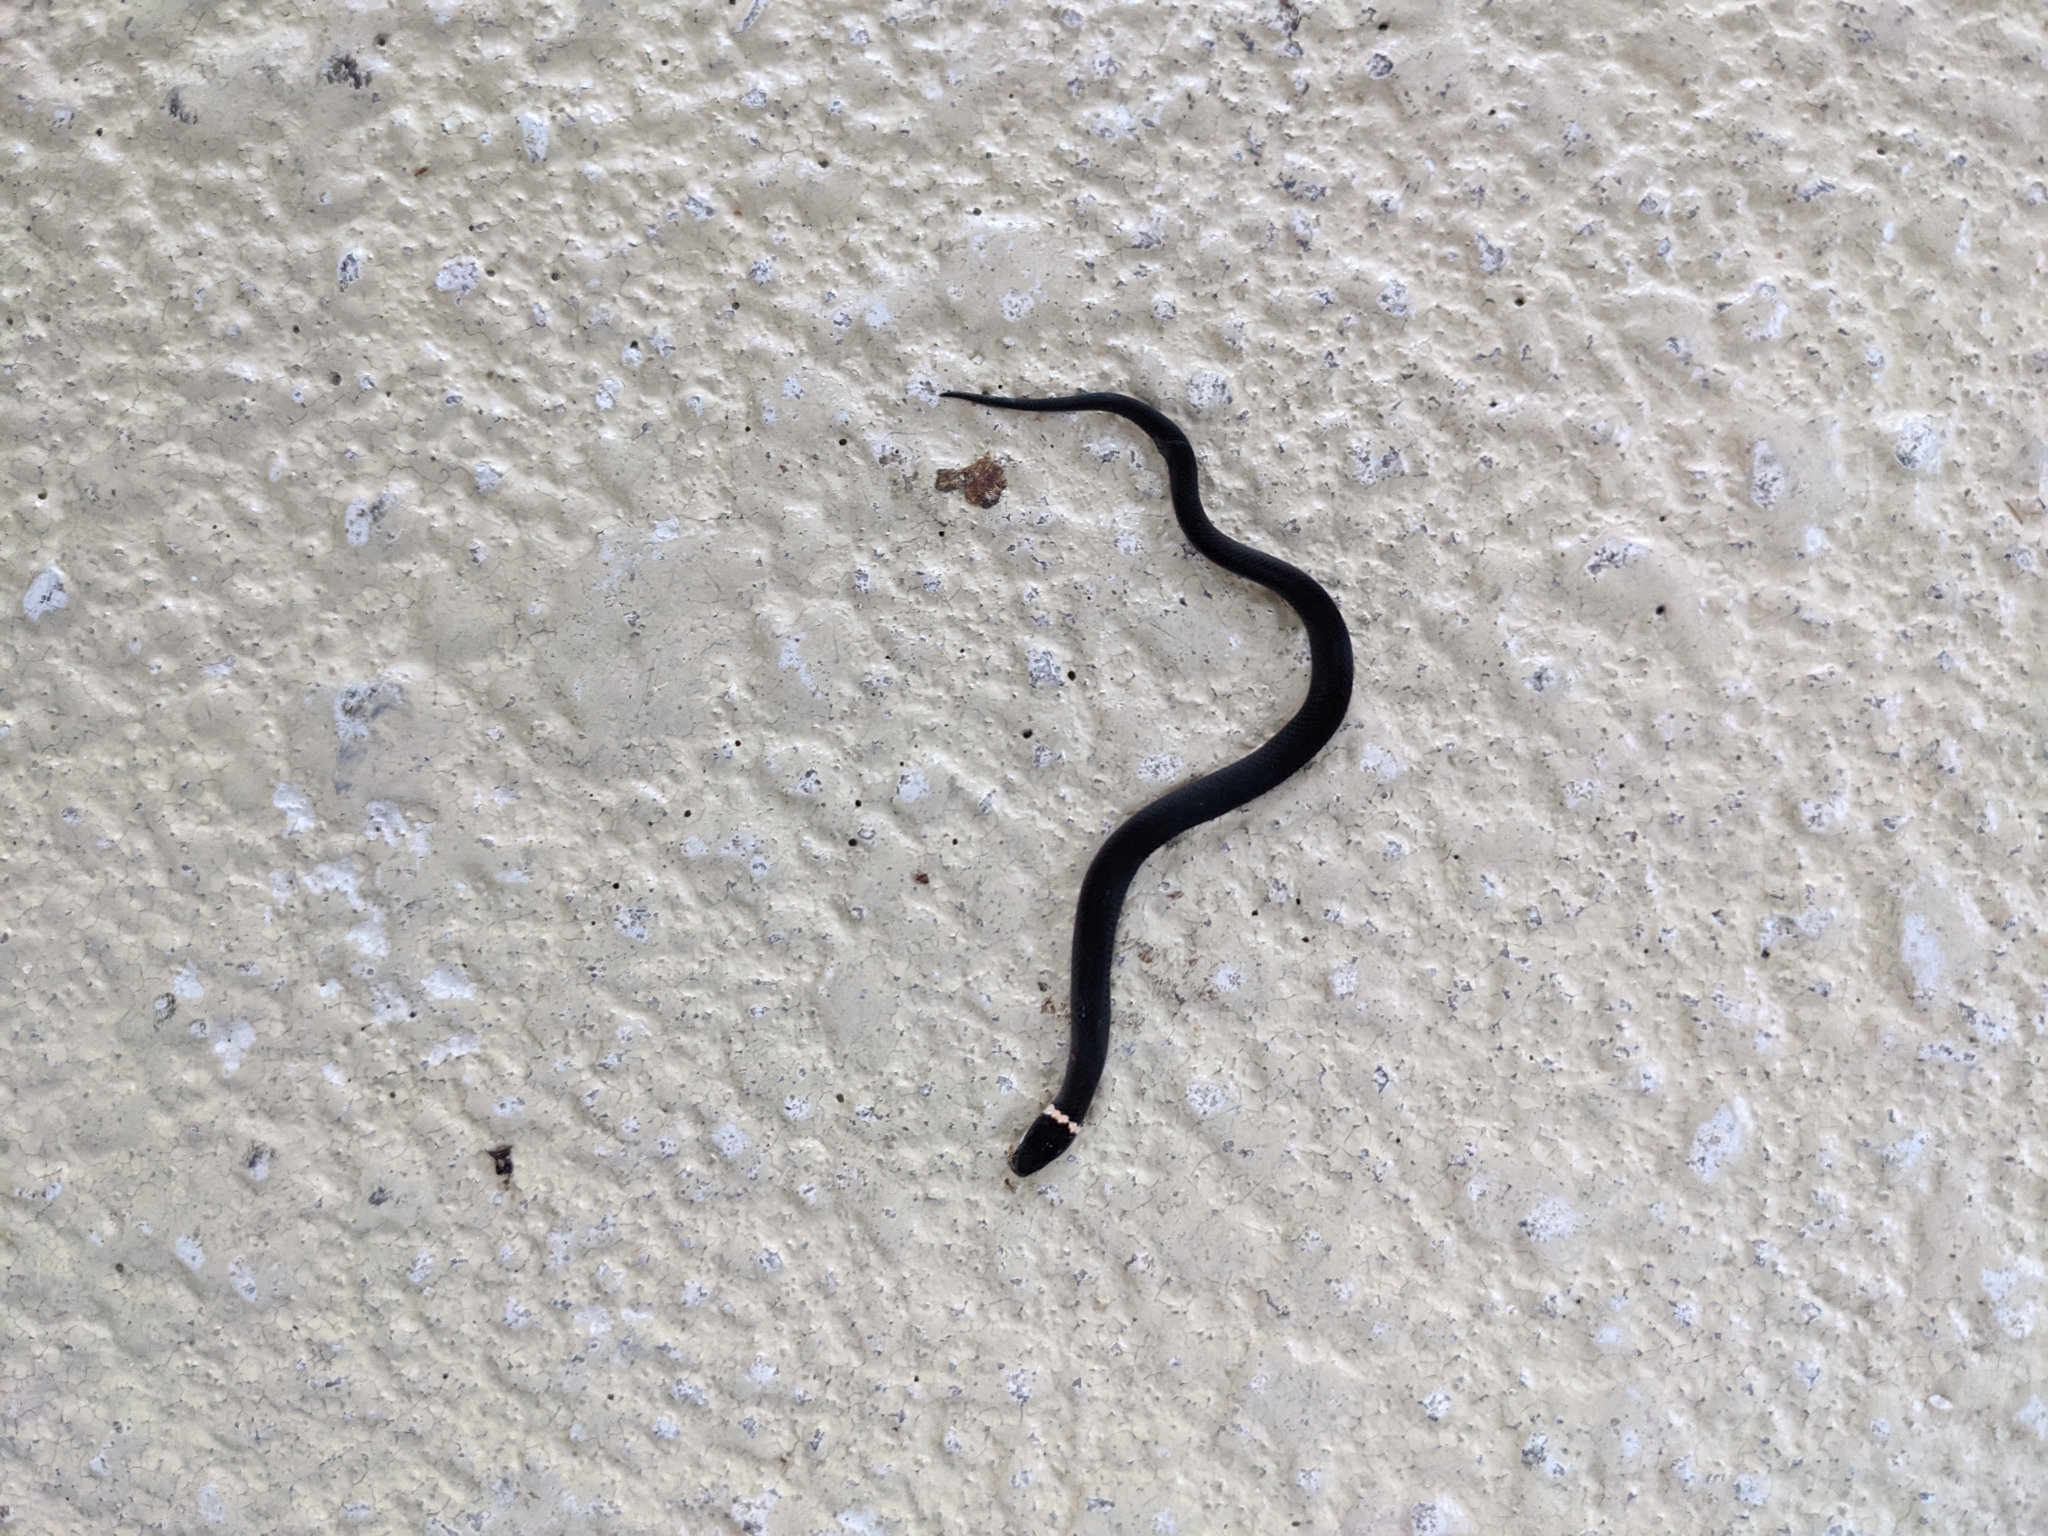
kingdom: Animalia
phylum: Chordata
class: Squamata
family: Colubridae
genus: Diadophis
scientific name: Diadophis punctatus
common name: Ringneck snake
